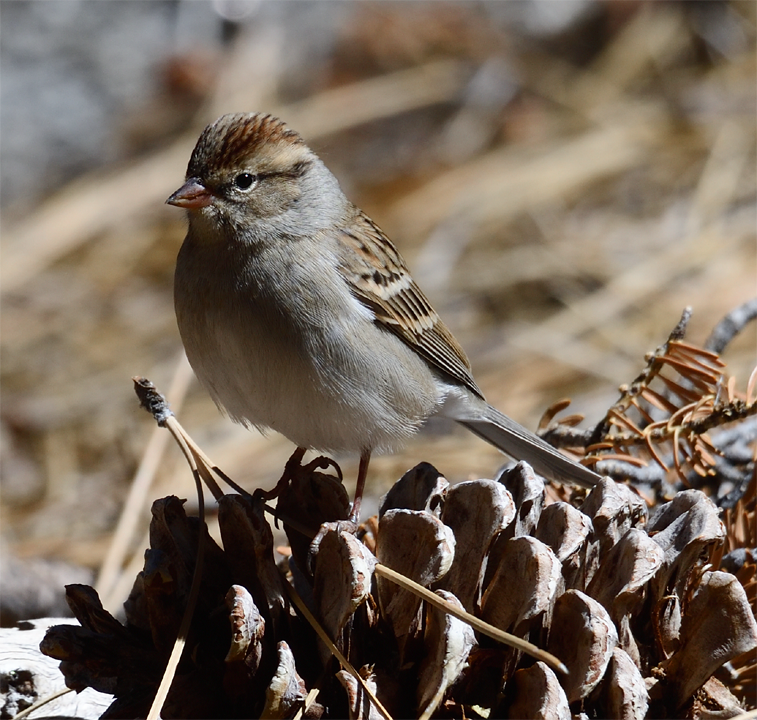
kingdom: Animalia
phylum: Chordata
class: Aves
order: Passeriformes
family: Passerellidae
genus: Spizella
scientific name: Spizella passerina
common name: Chipping sparrow
